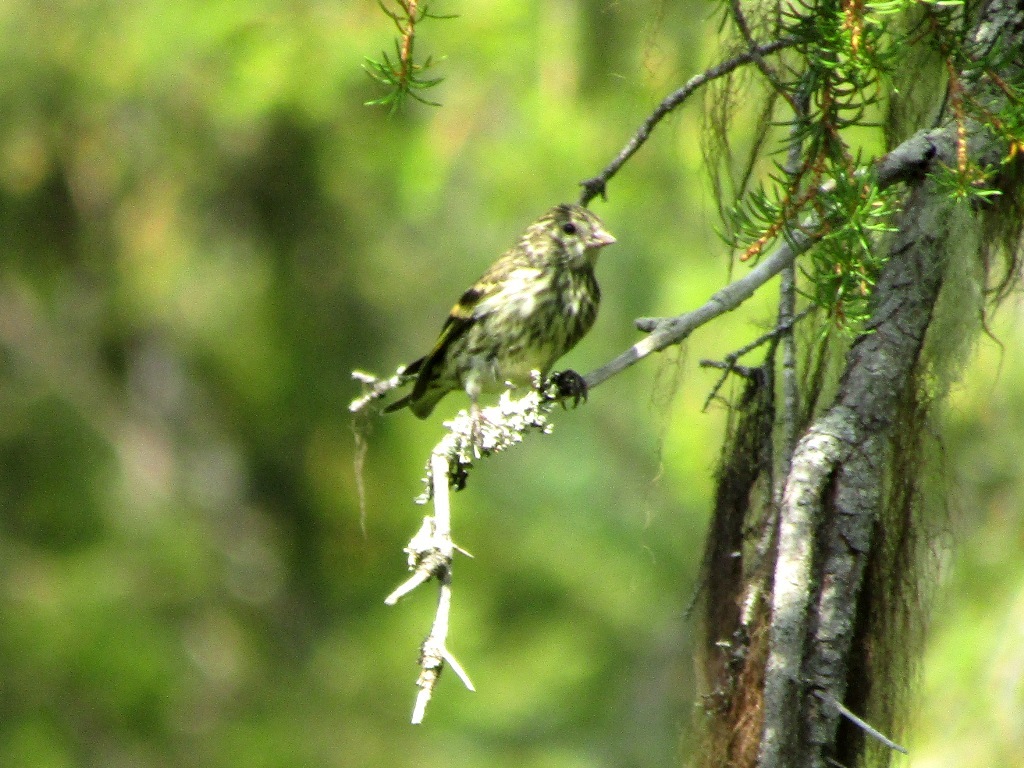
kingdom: Animalia
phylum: Chordata
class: Aves
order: Passeriformes
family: Fringillidae
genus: Spinus
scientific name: Spinus spinus
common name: Eurasian siskin
